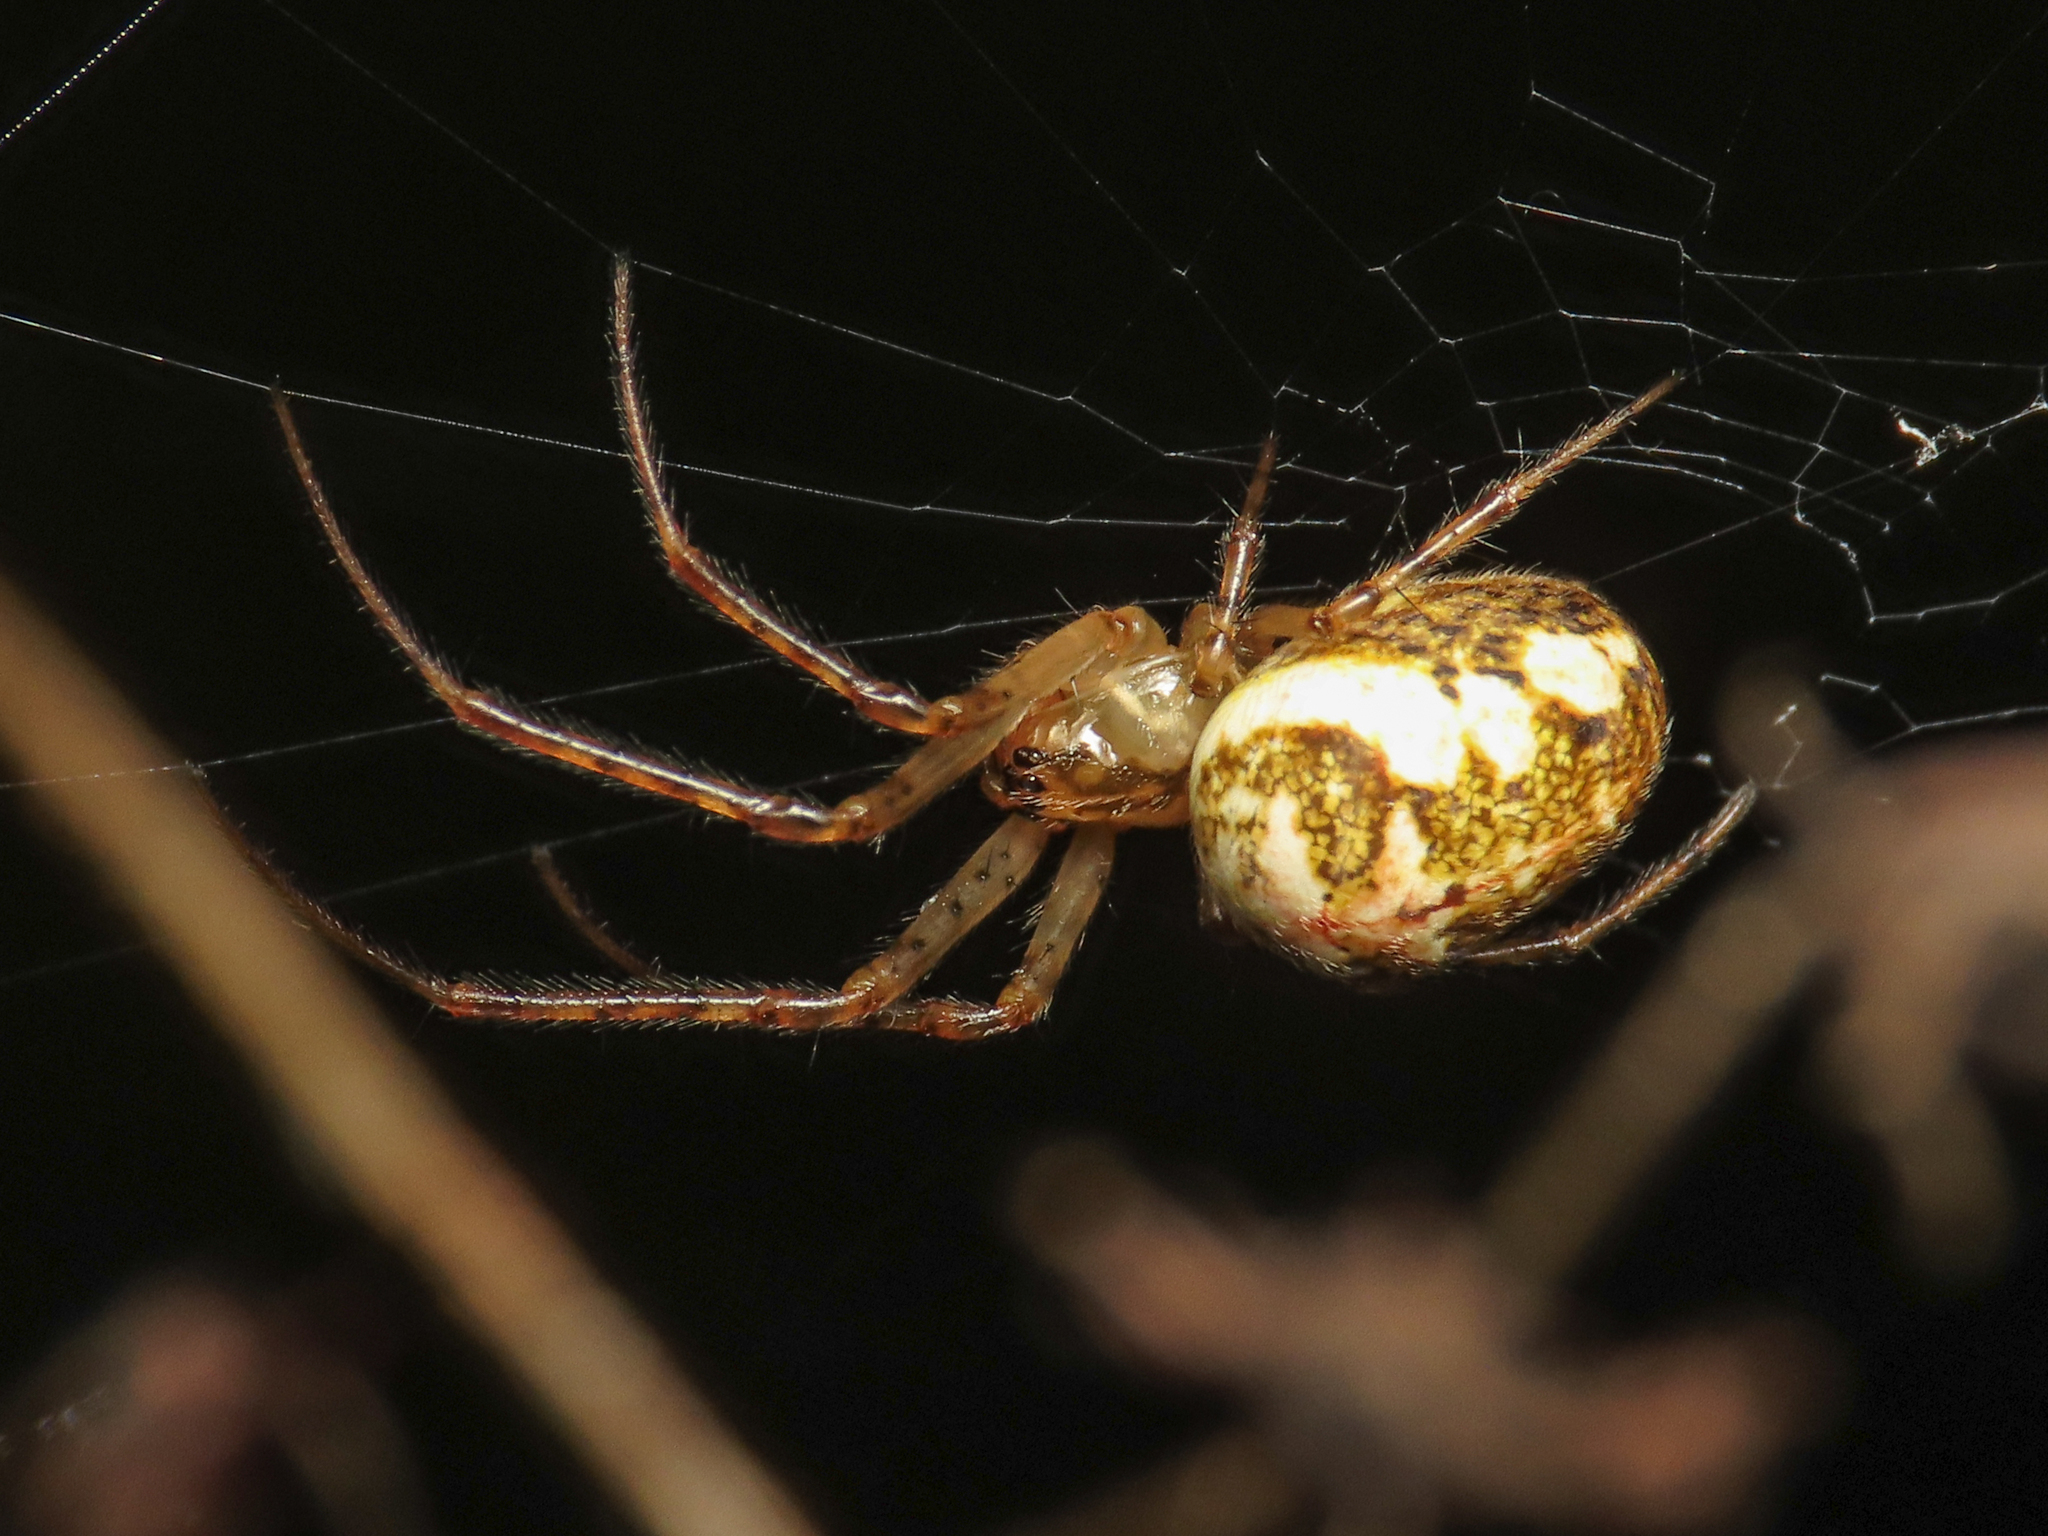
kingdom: Animalia
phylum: Arthropoda
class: Arachnida
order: Araneae
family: Tetragnathidae
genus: Metellina
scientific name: Metellina mengei
